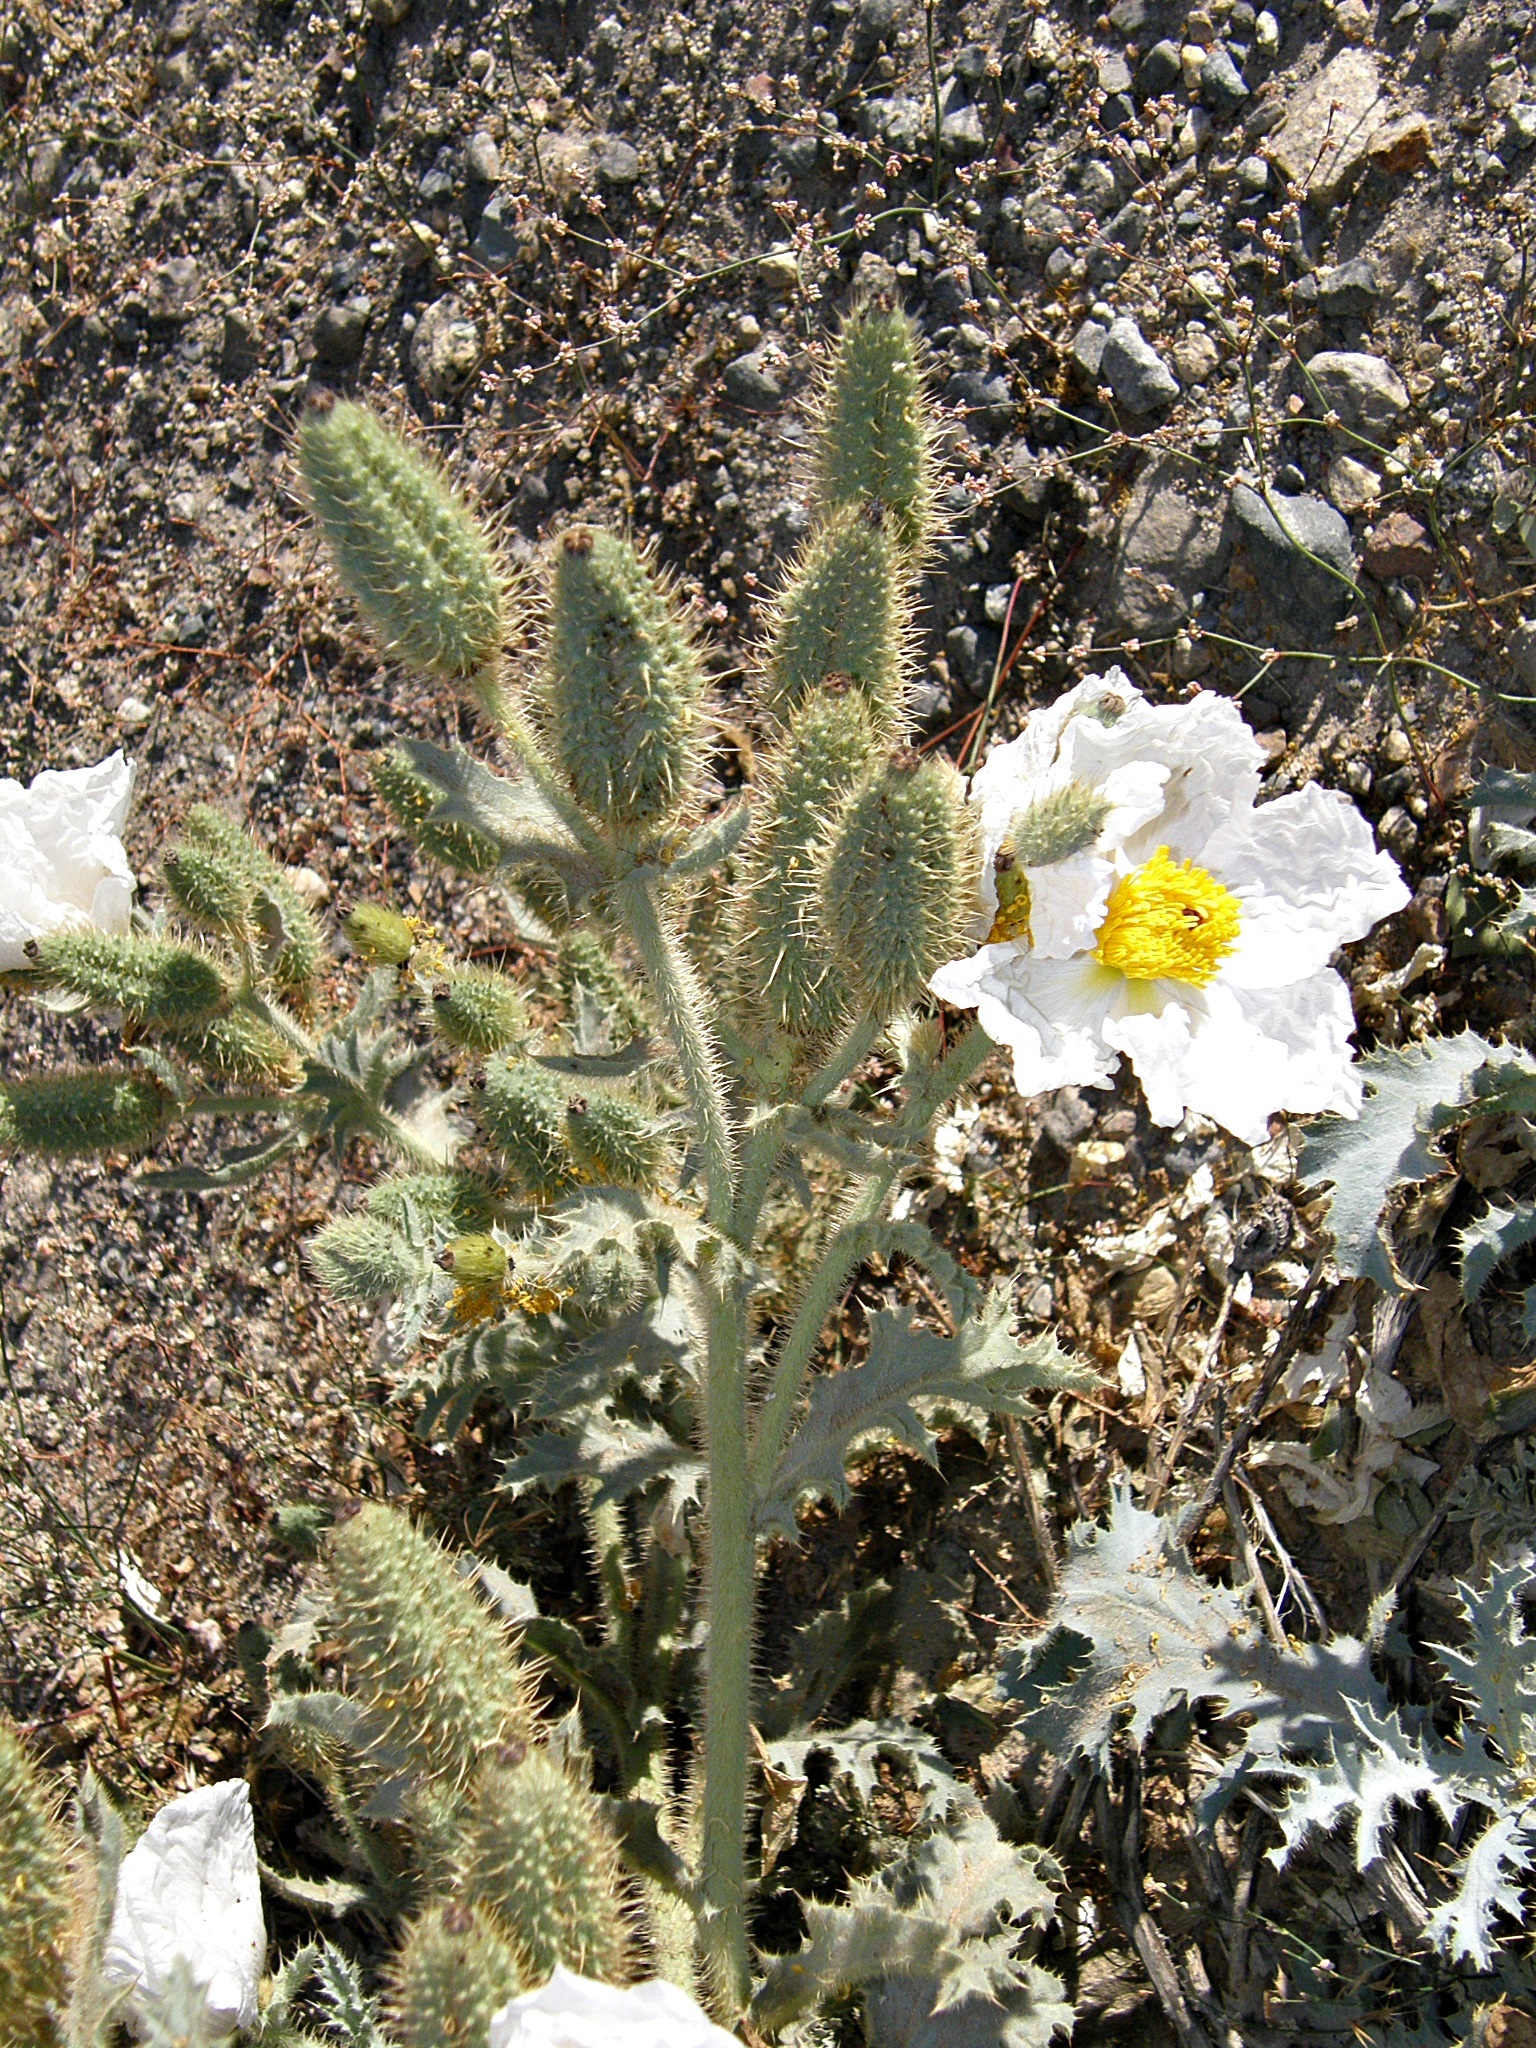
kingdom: Plantae
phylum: Tracheophyta
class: Magnoliopsida
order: Ranunculales
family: Papaveraceae
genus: Argemone
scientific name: Argemone munita
